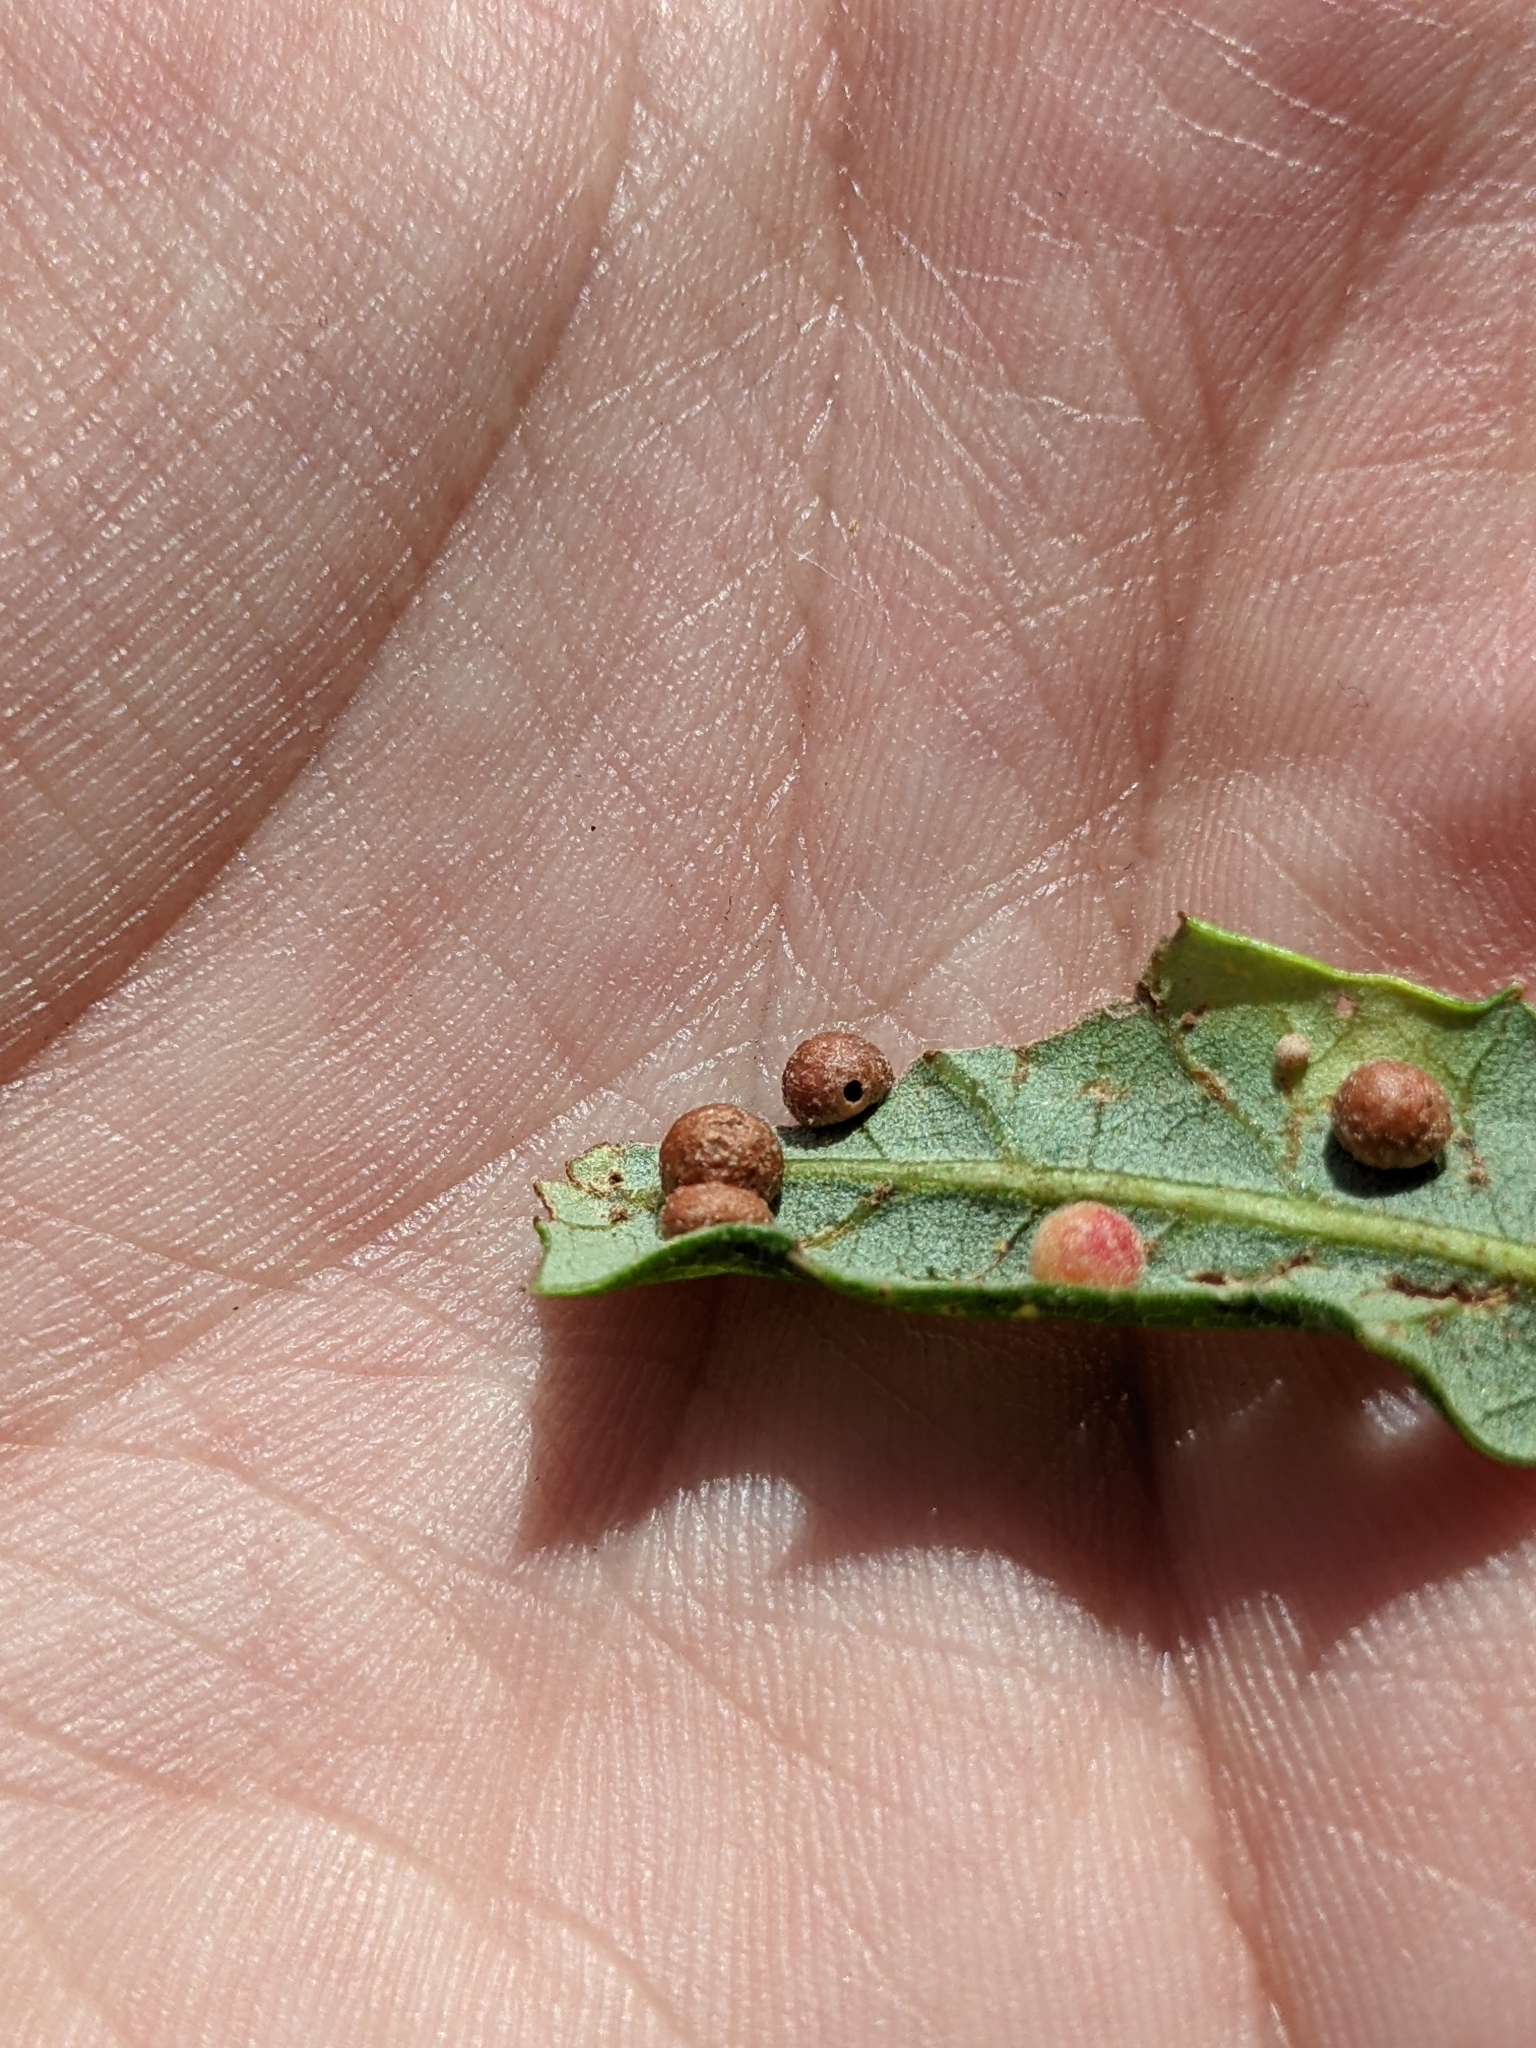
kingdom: Animalia
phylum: Arthropoda
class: Insecta
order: Hymenoptera
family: Cynipidae
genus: Belonocnema
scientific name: Belonocnema kinseyi
